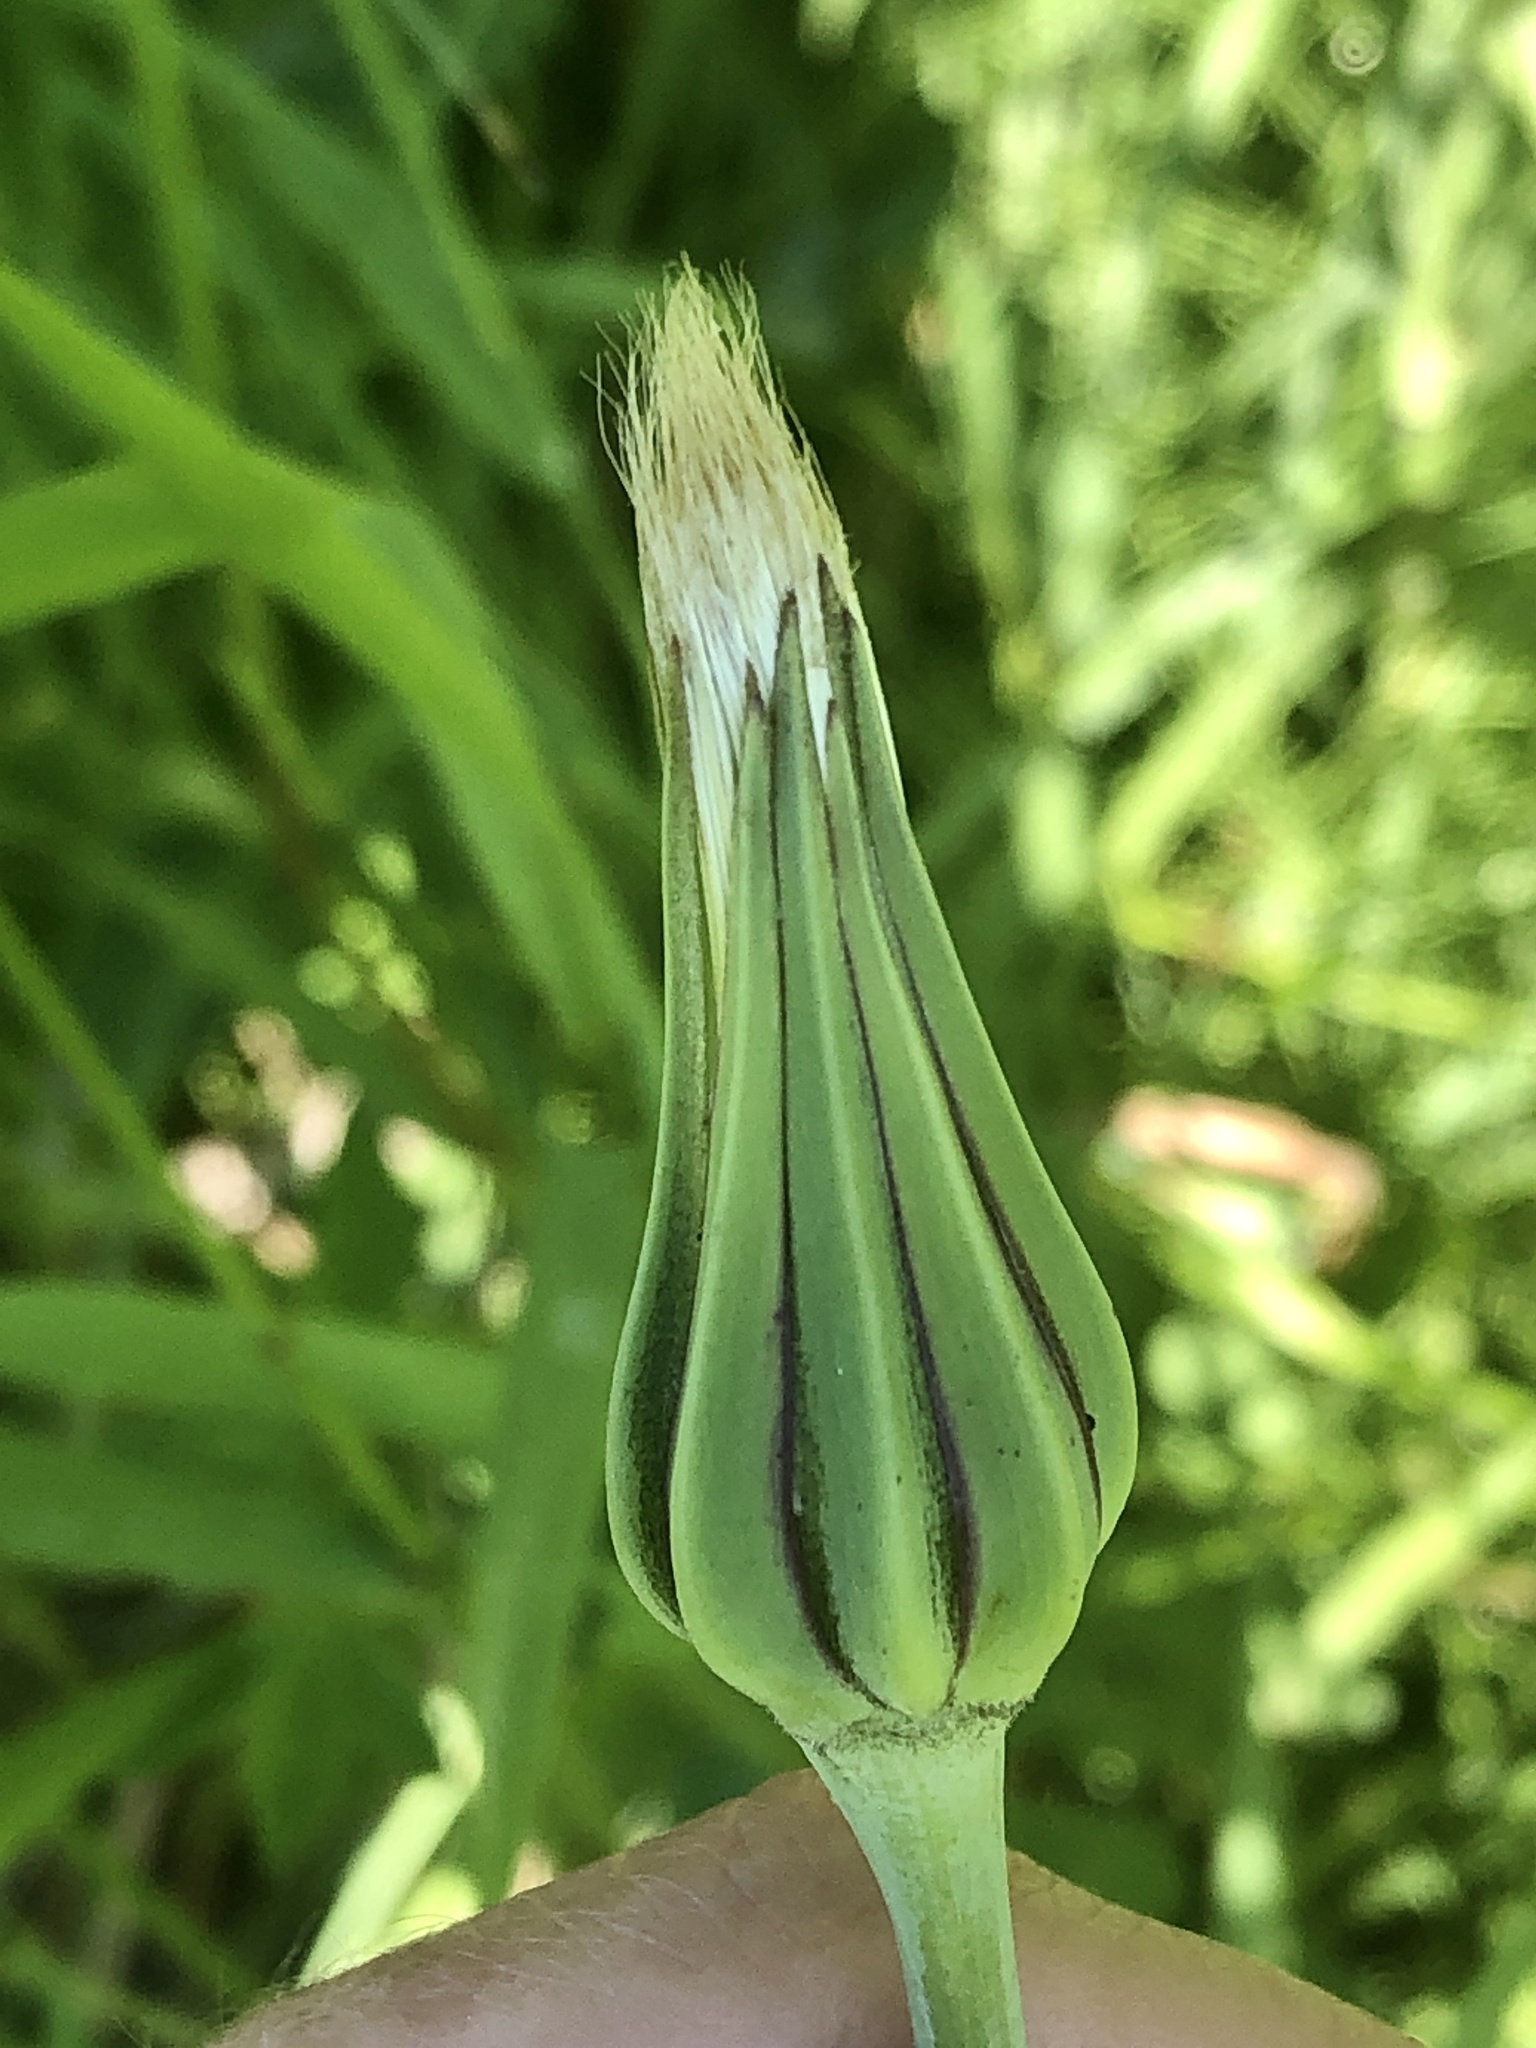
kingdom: Plantae
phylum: Tracheophyta
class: Magnoliopsida
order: Asterales
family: Asteraceae
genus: Tragopogon
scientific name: Tragopogon pratensis
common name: Goat's-beard
